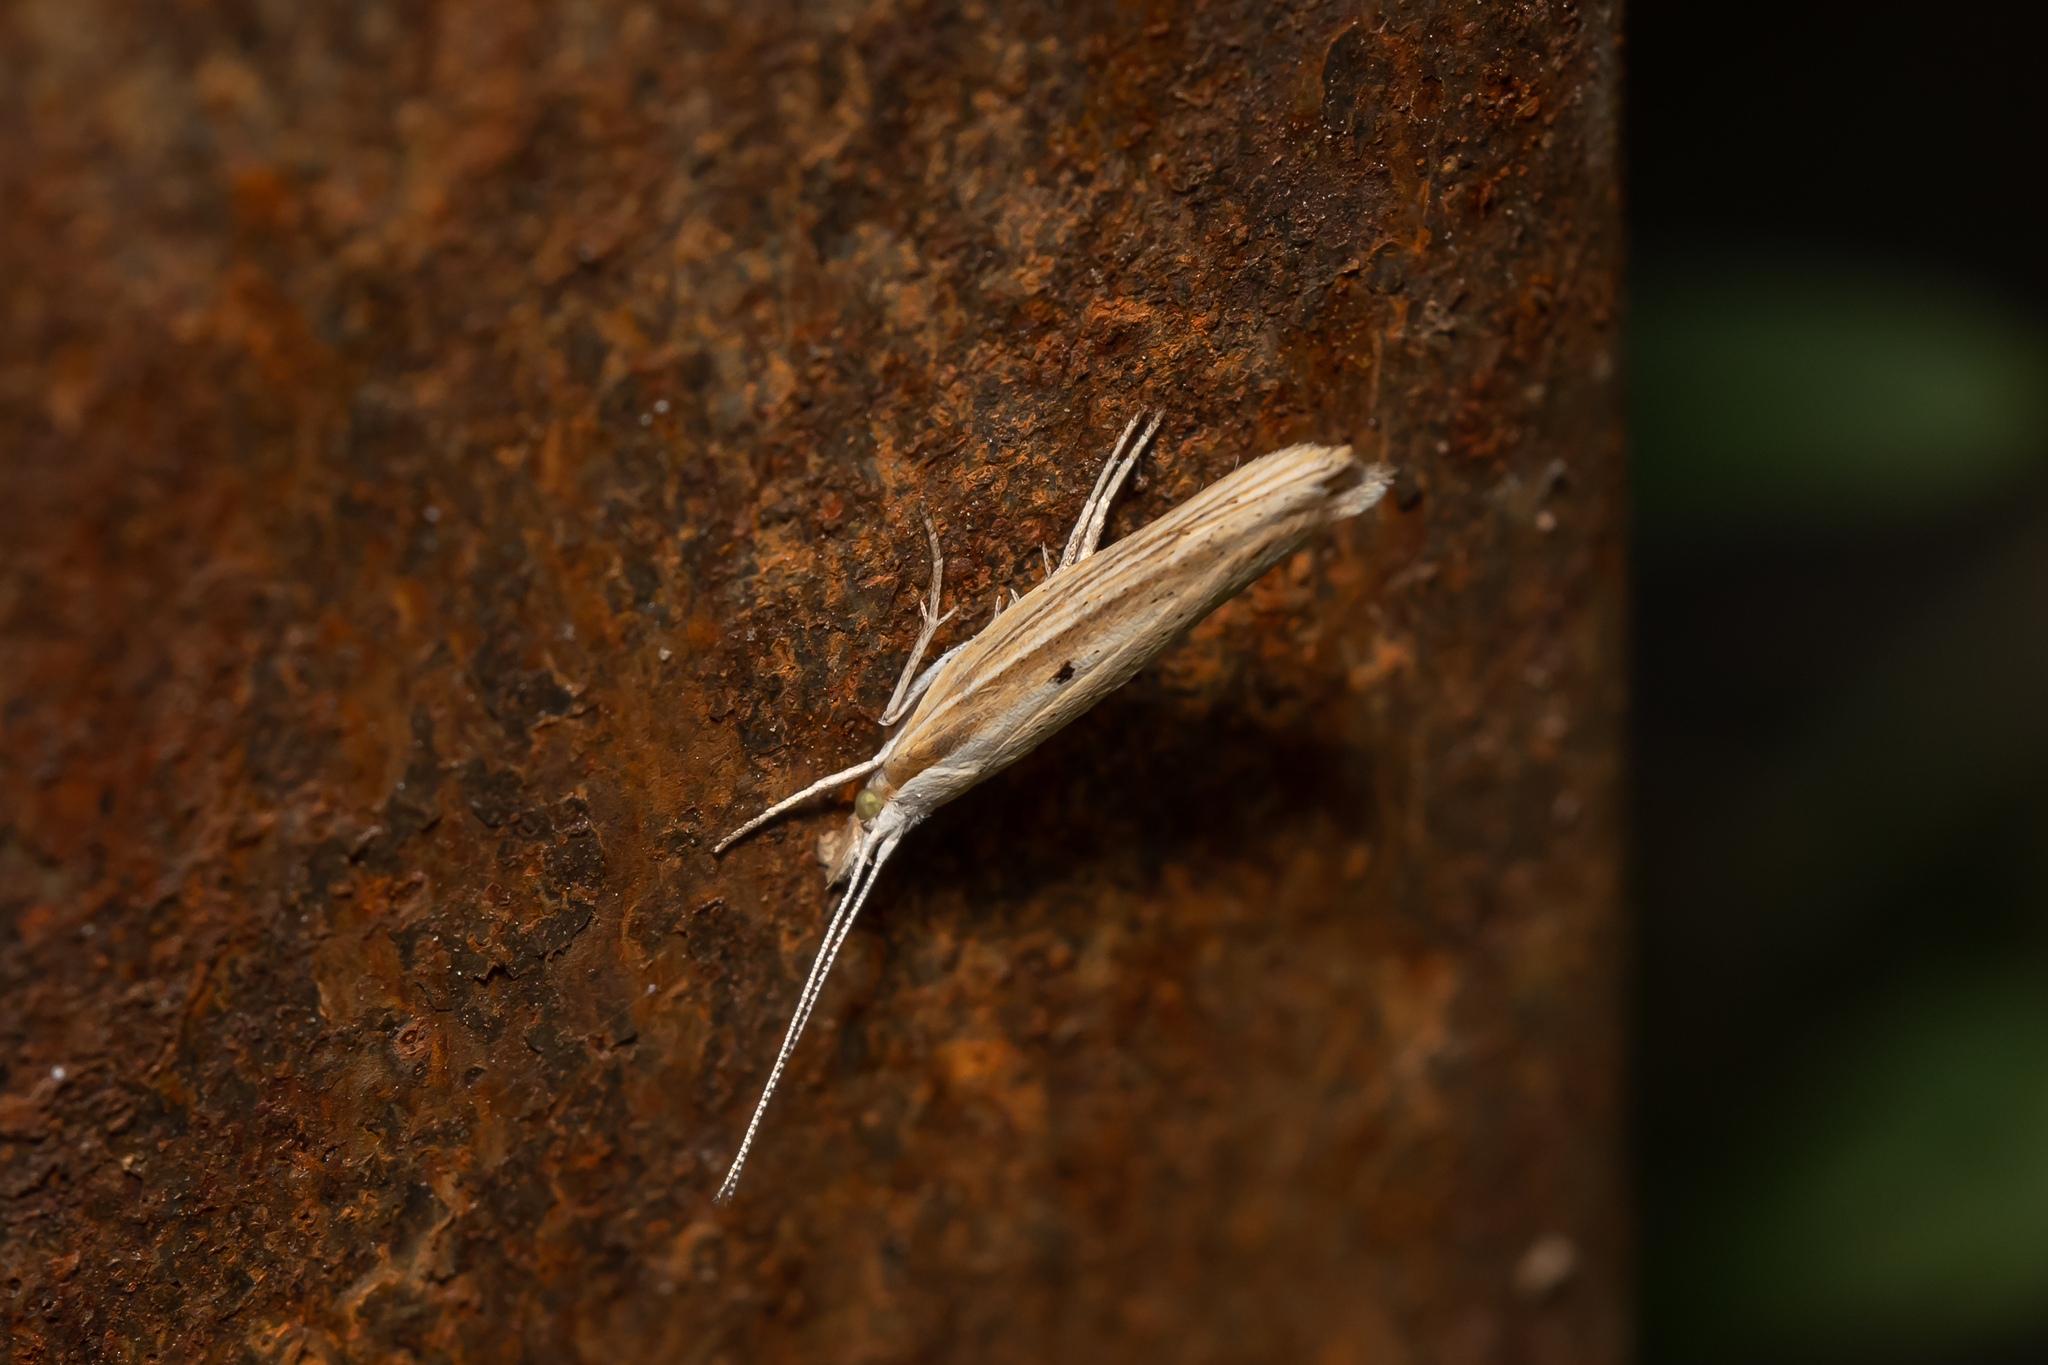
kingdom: Animalia
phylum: Arthropoda
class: Insecta
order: Lepidoptera
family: Ypsolophidae
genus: Ypsolopha
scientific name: Ypsolopha nemorella
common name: Hooked smudge
